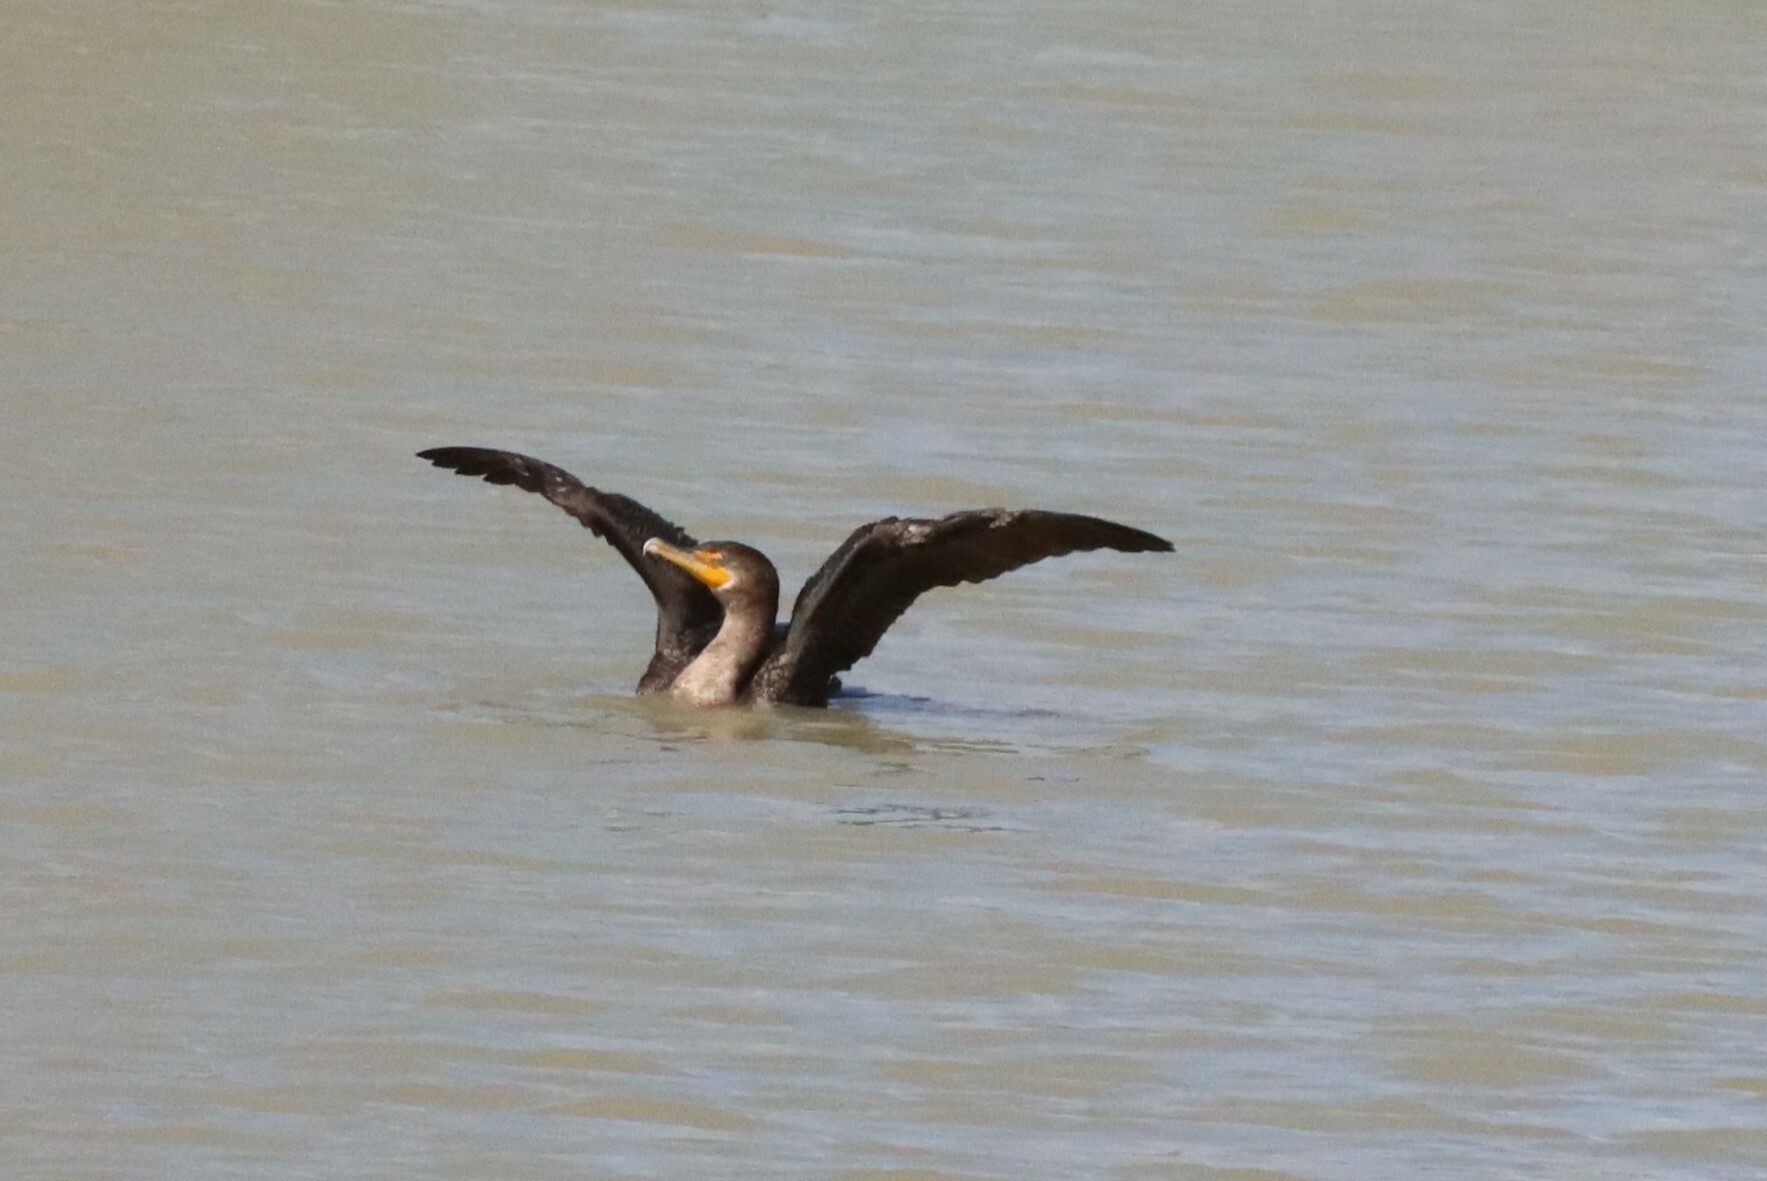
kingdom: Animalia
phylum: Chordata
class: Aves
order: Suliformes
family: Phalacrocoracidae
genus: Phalacrocorax
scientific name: Phalacrocorax auritus
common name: Double-crested cormorant
